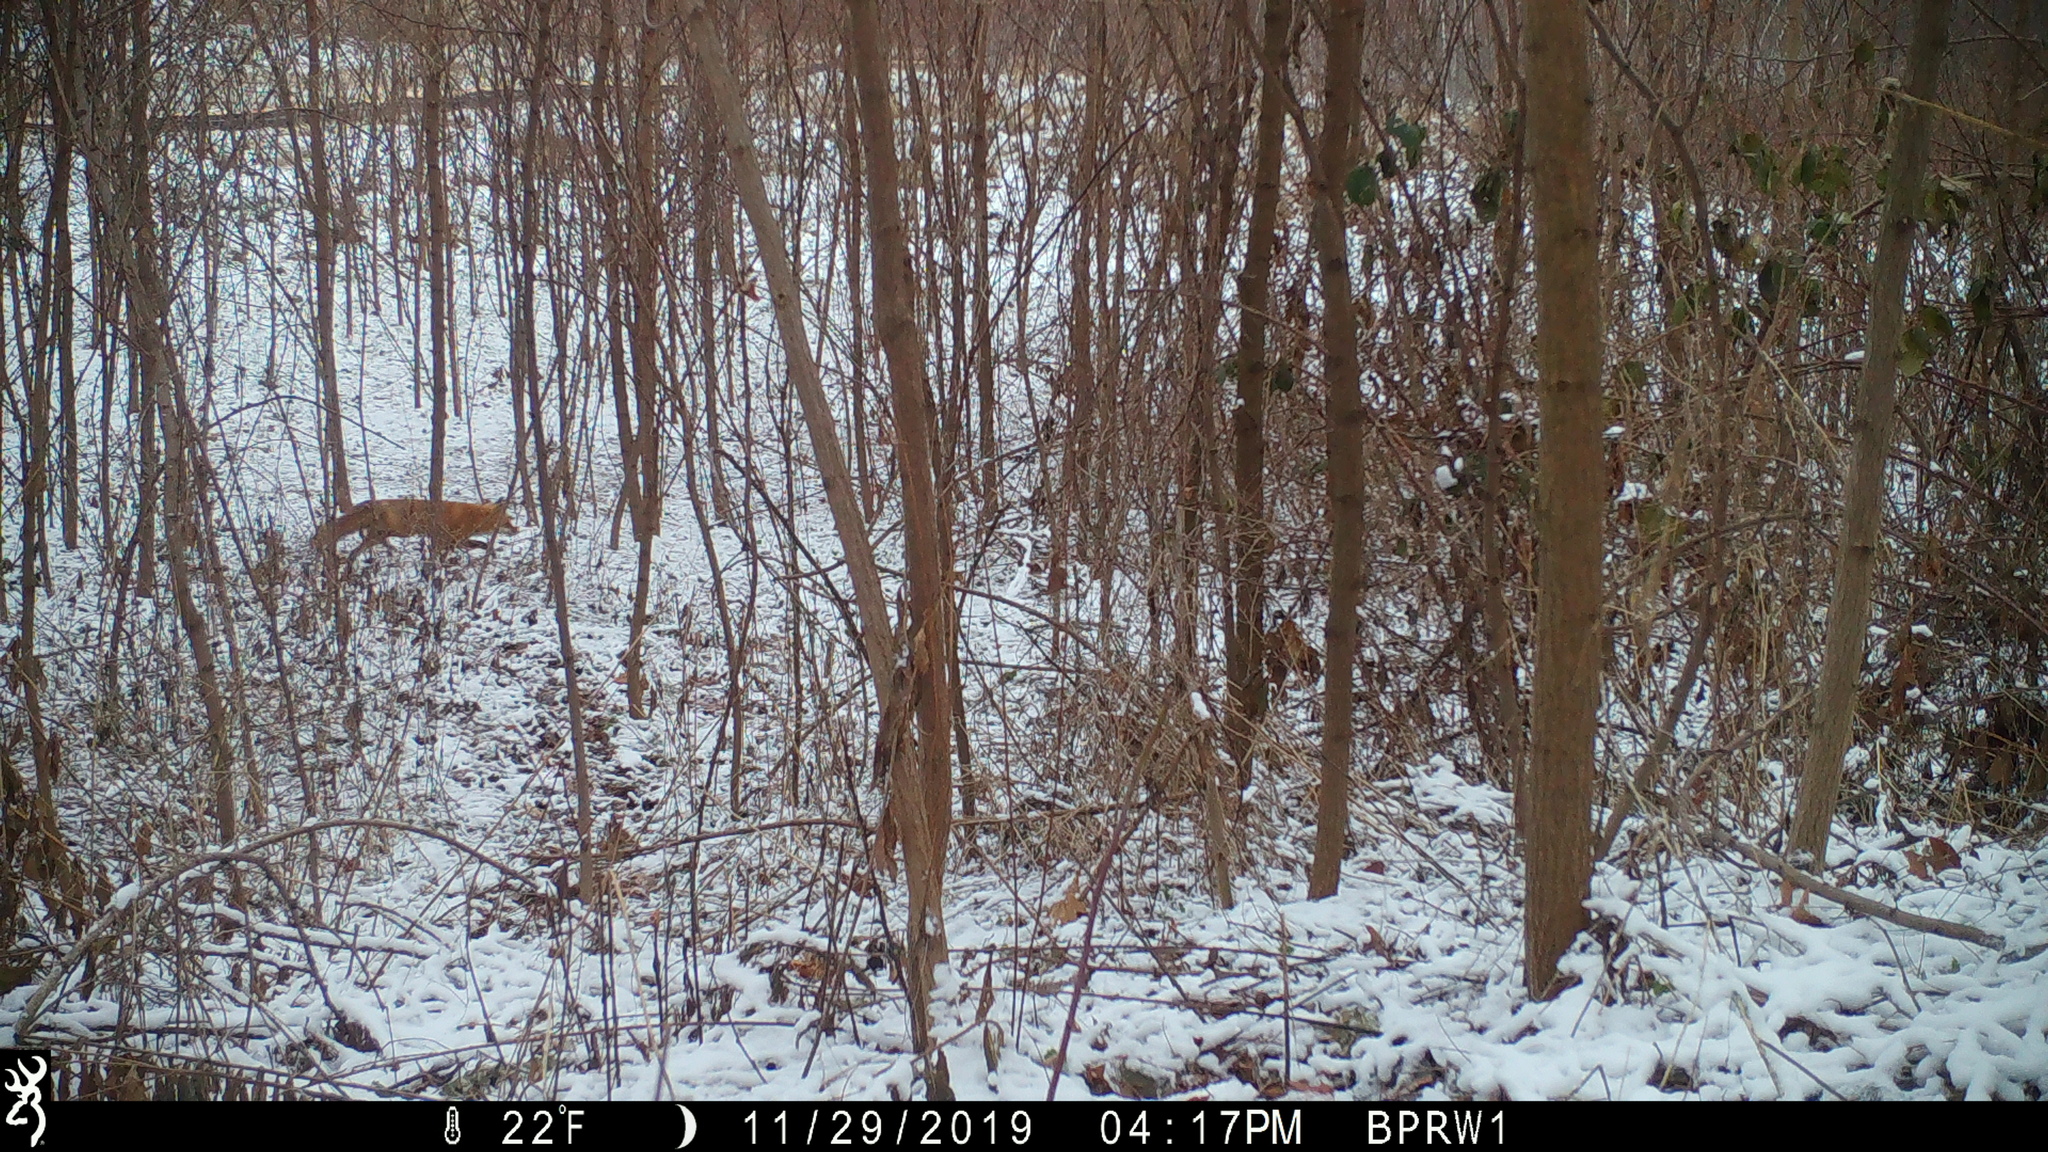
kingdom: Animalia
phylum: Chordata
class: Mammalia
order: Carnivora
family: Canidae
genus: Vulpes
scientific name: Vulpes vulpes
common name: Red fox
